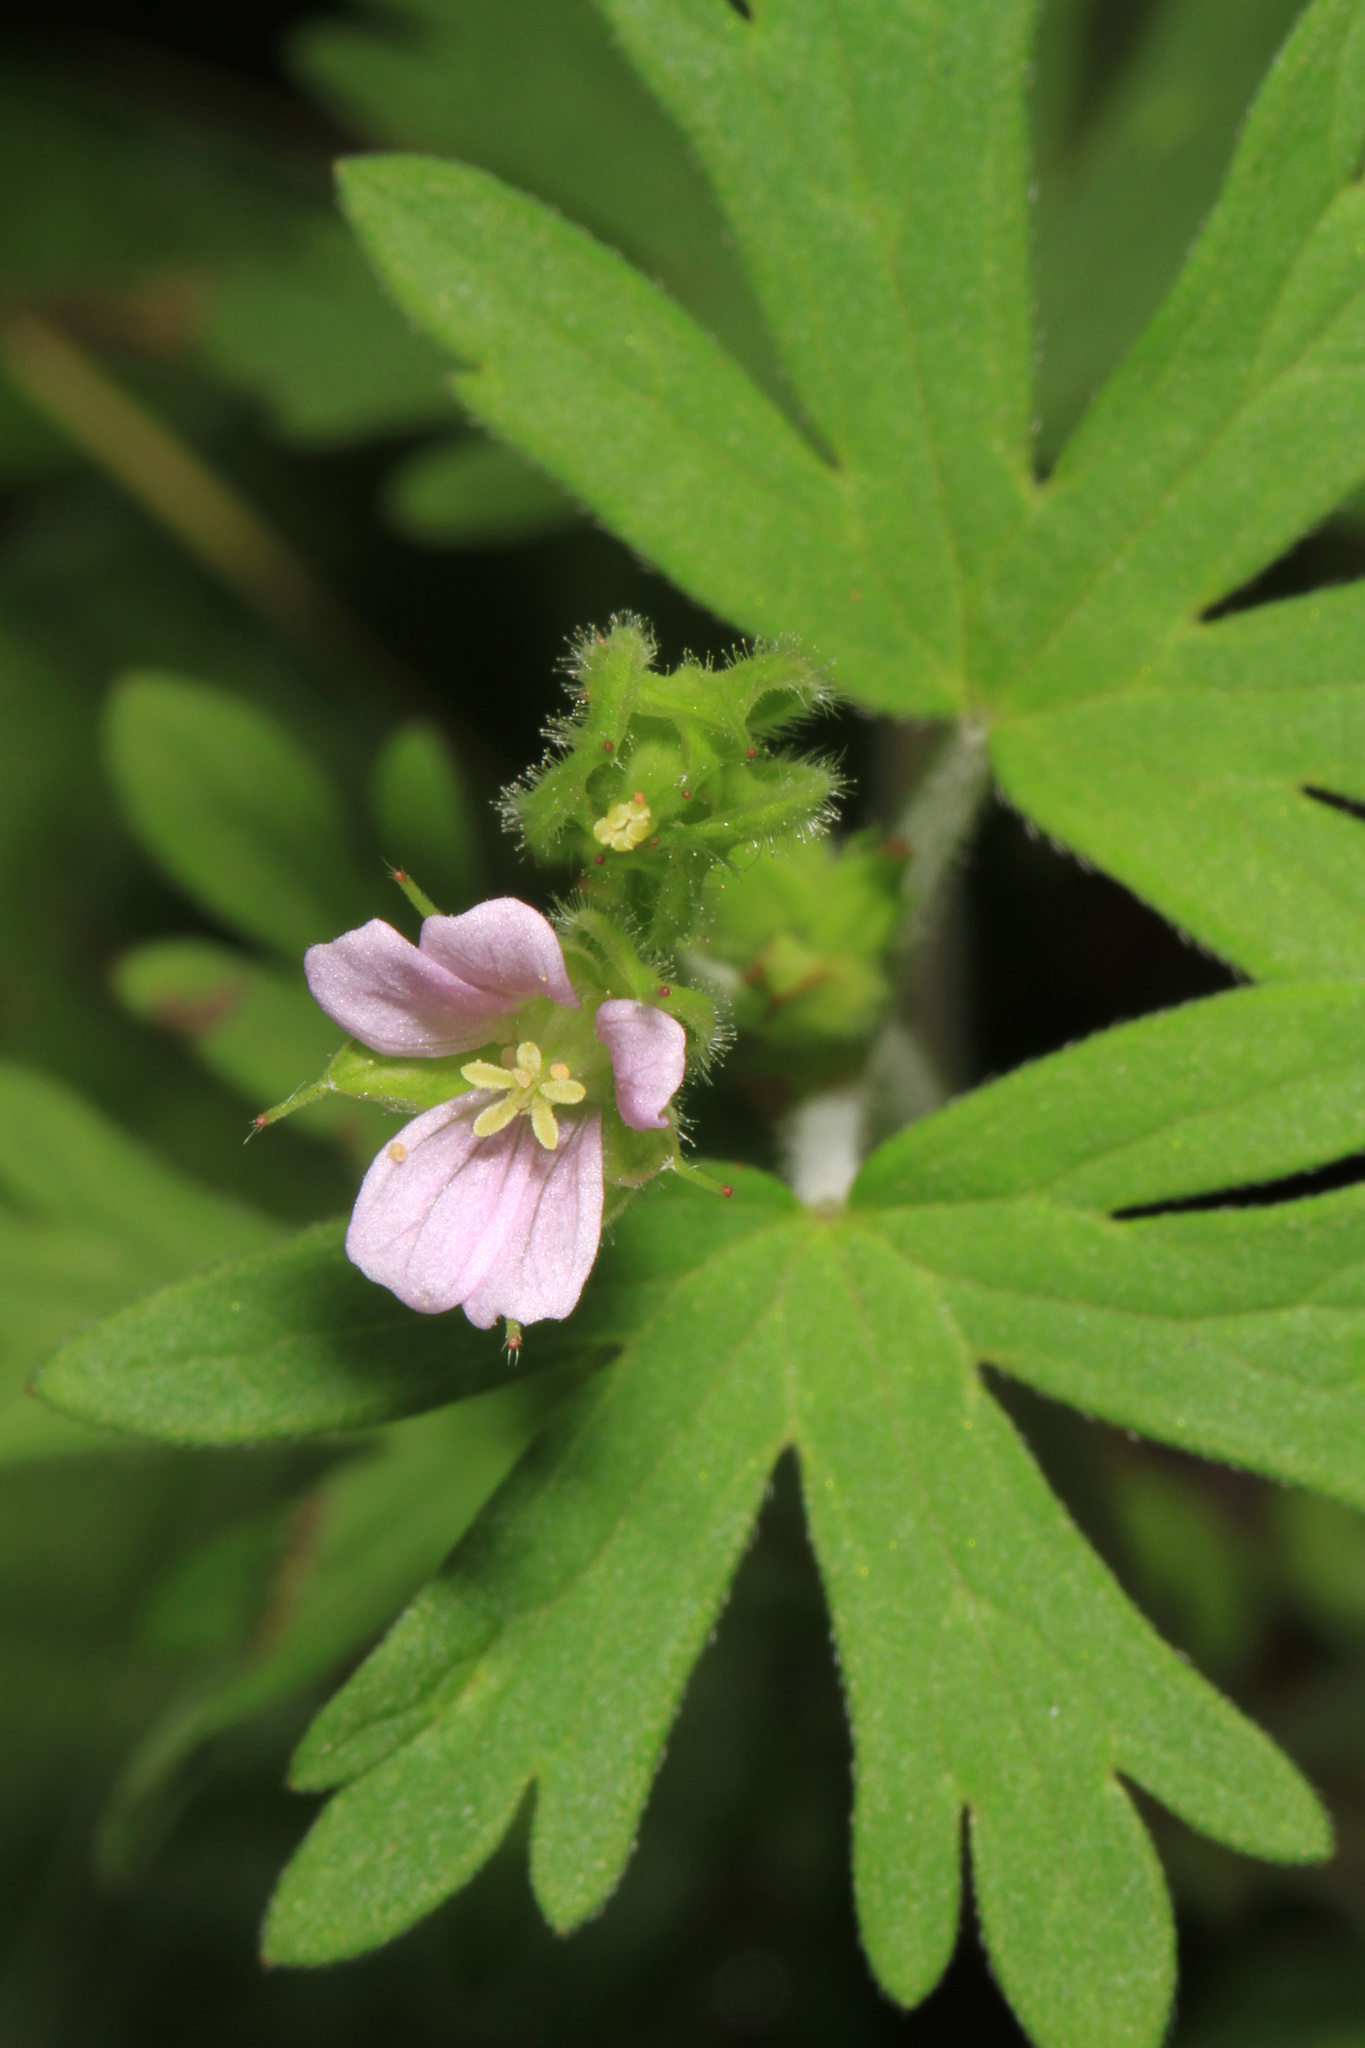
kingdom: Plantae
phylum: Tracheophyta
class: Magnoliopsida
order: Geraniales
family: Geraniaceae
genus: Geranium
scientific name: Geranium carolinianum
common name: Carolina crane's-bill
